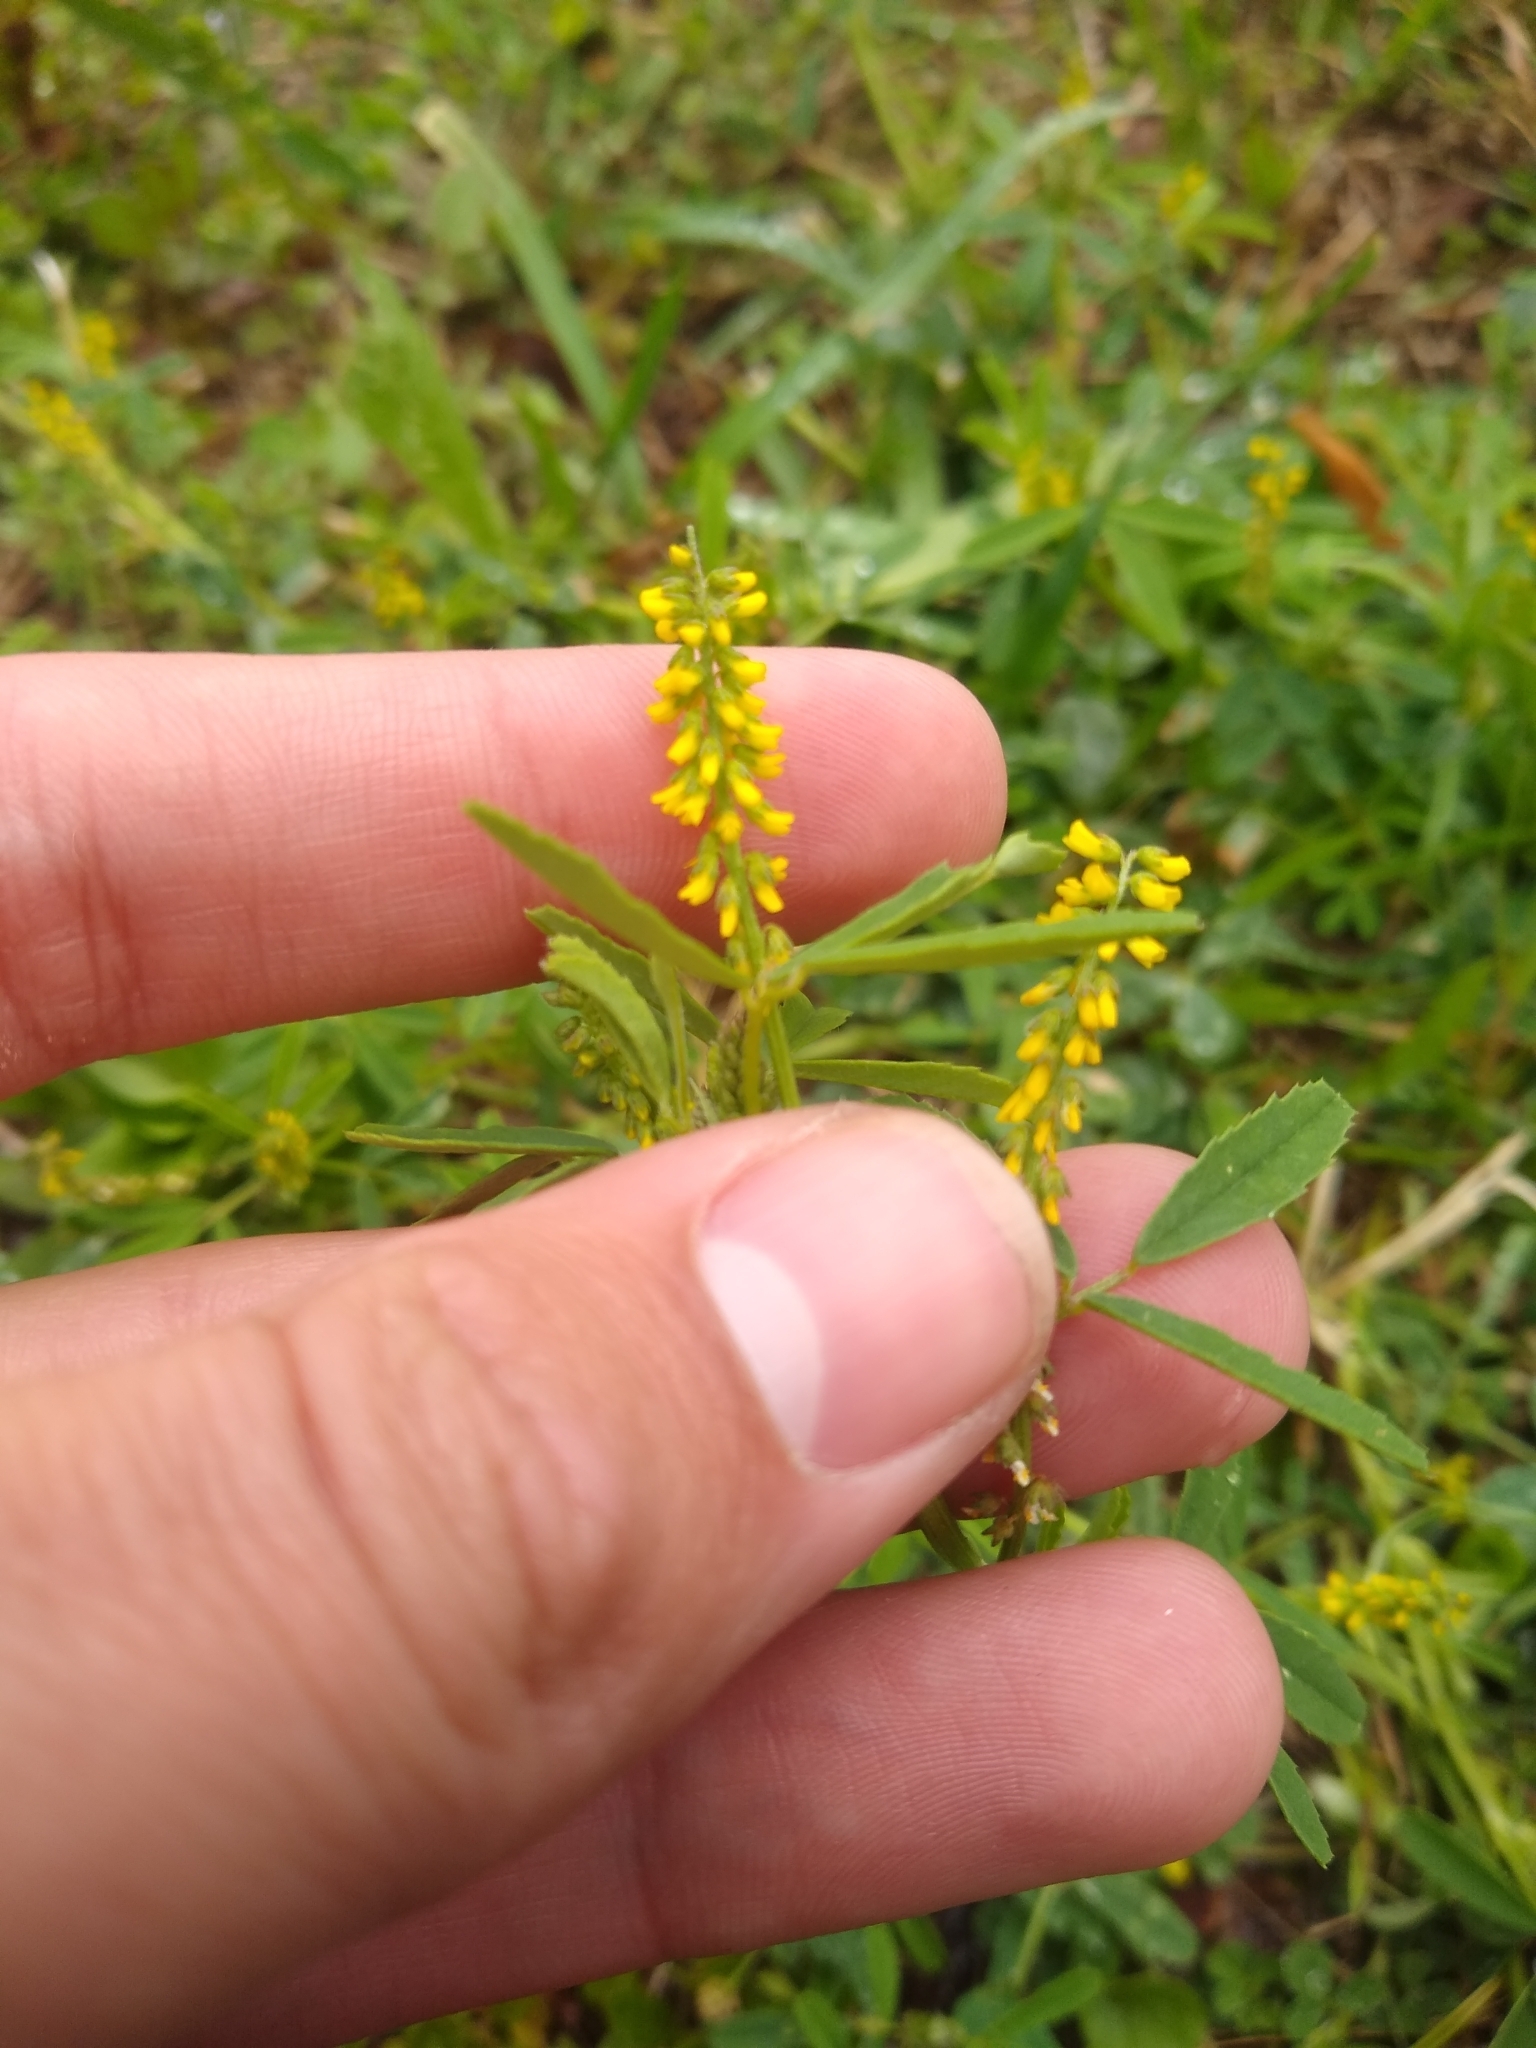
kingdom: Plantae
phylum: Tracheophyta
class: Magnoliopsida
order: Fabales
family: Fabaceae
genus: Melilotus
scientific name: Melilotus indicus
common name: Small melilot
